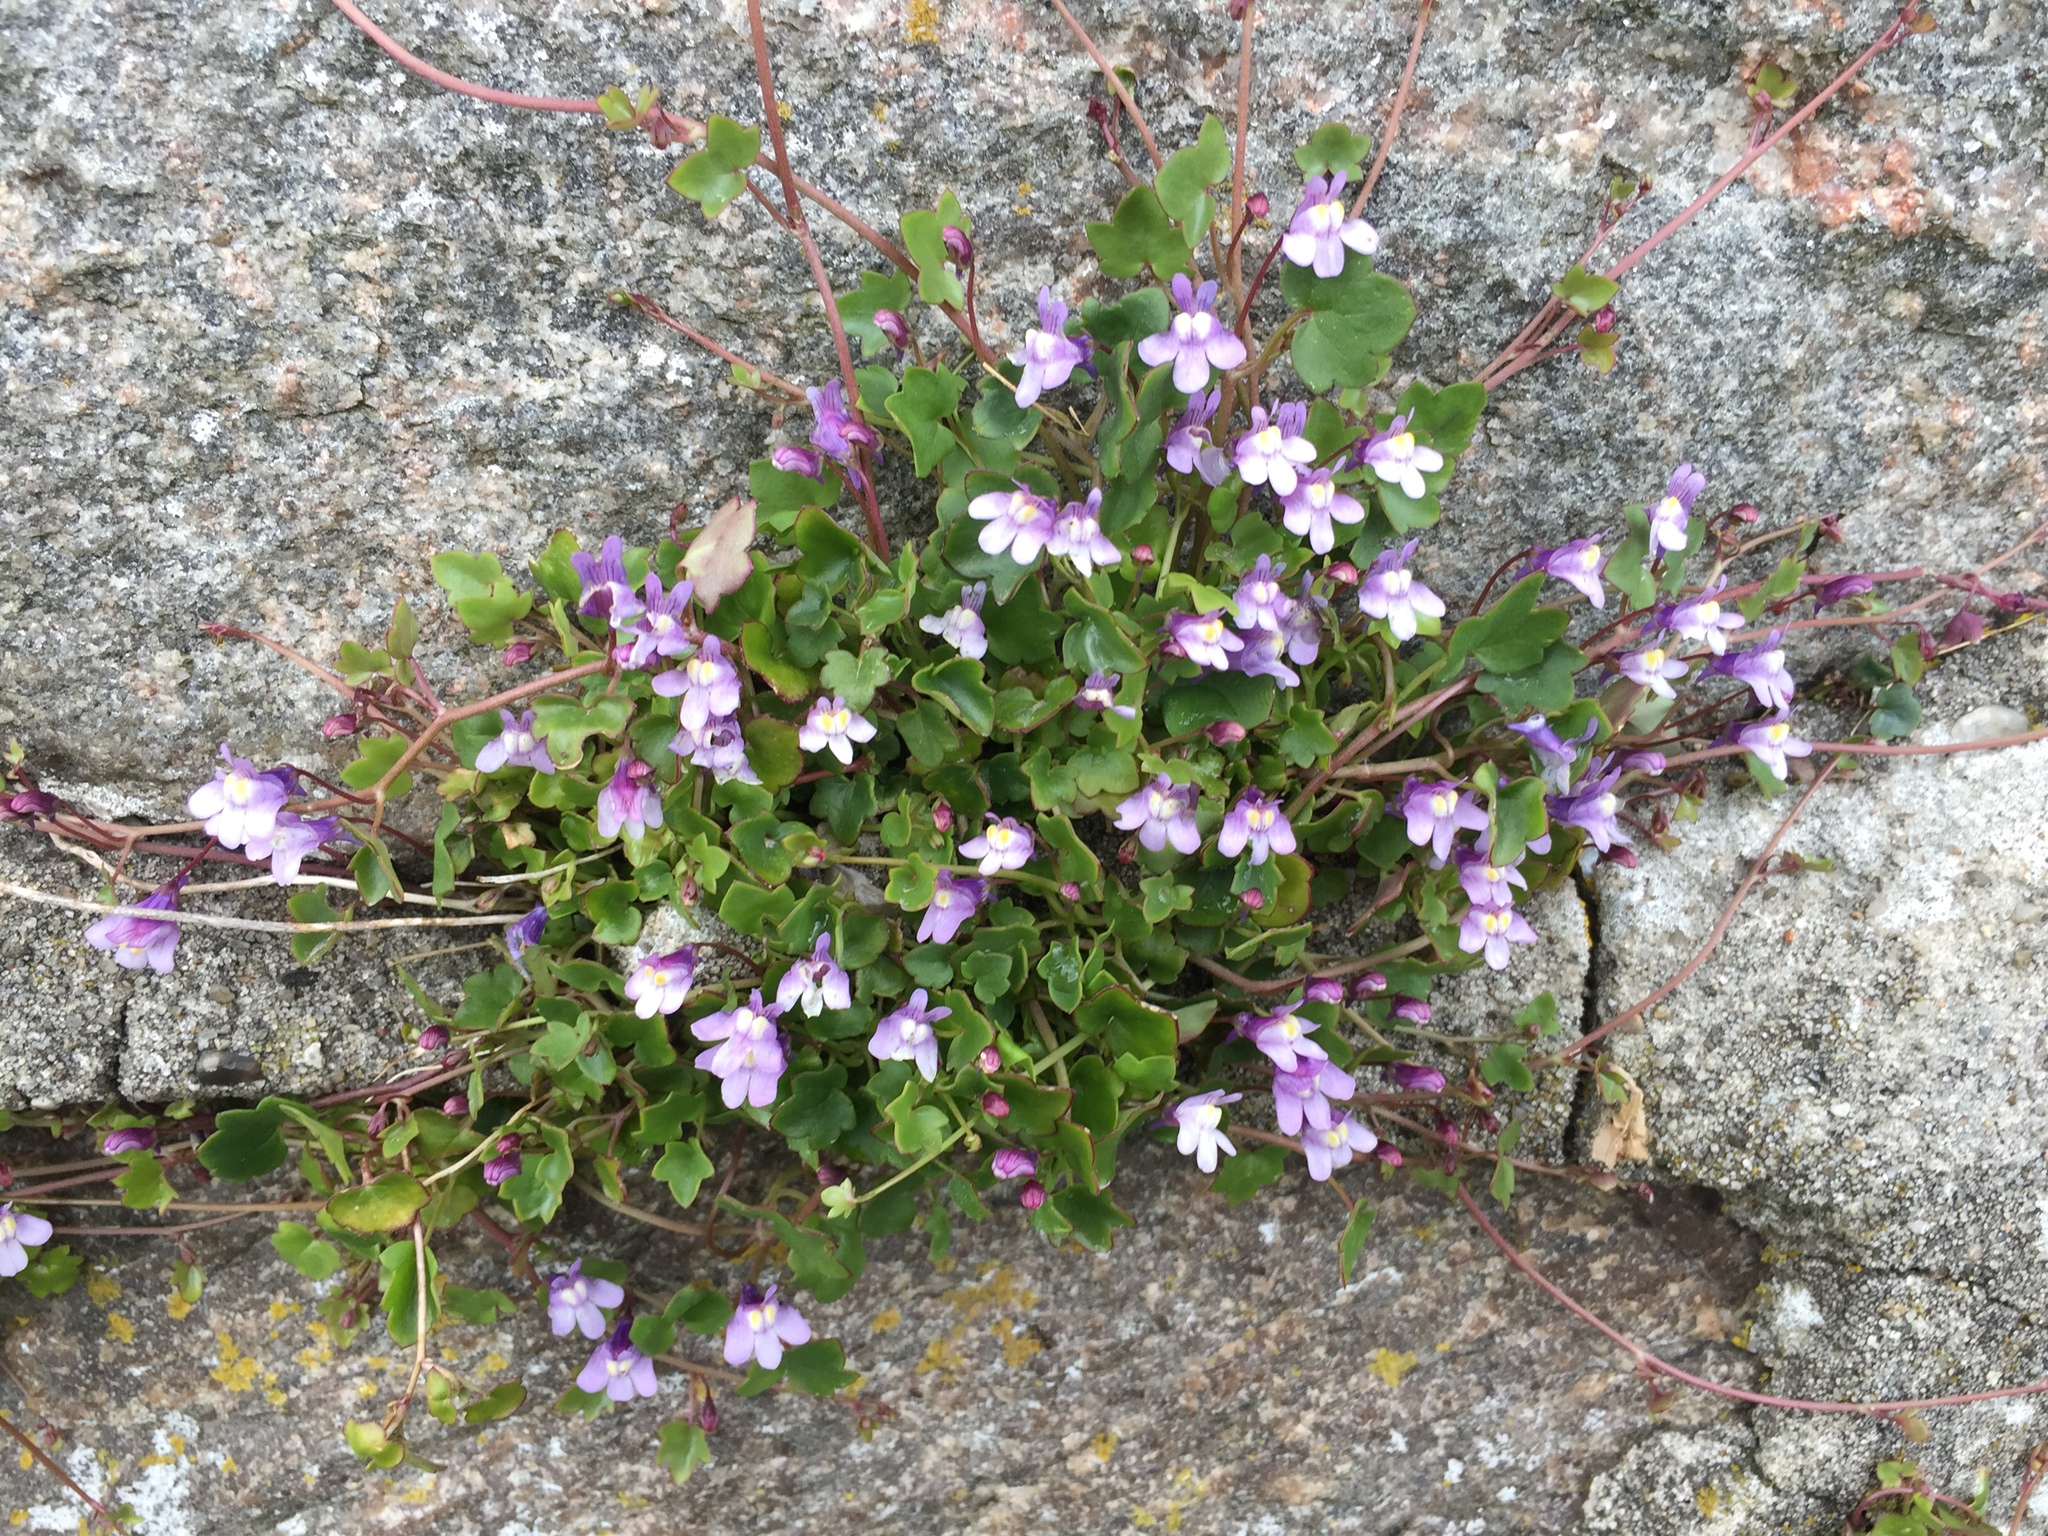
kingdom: Plantae
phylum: Tracheophyta
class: Magnoliopsida
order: Lamiales
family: Plantaginaceae
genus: Cymbalaria
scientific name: Cymbalaria muralis
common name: Ivy-leaved toadflax
